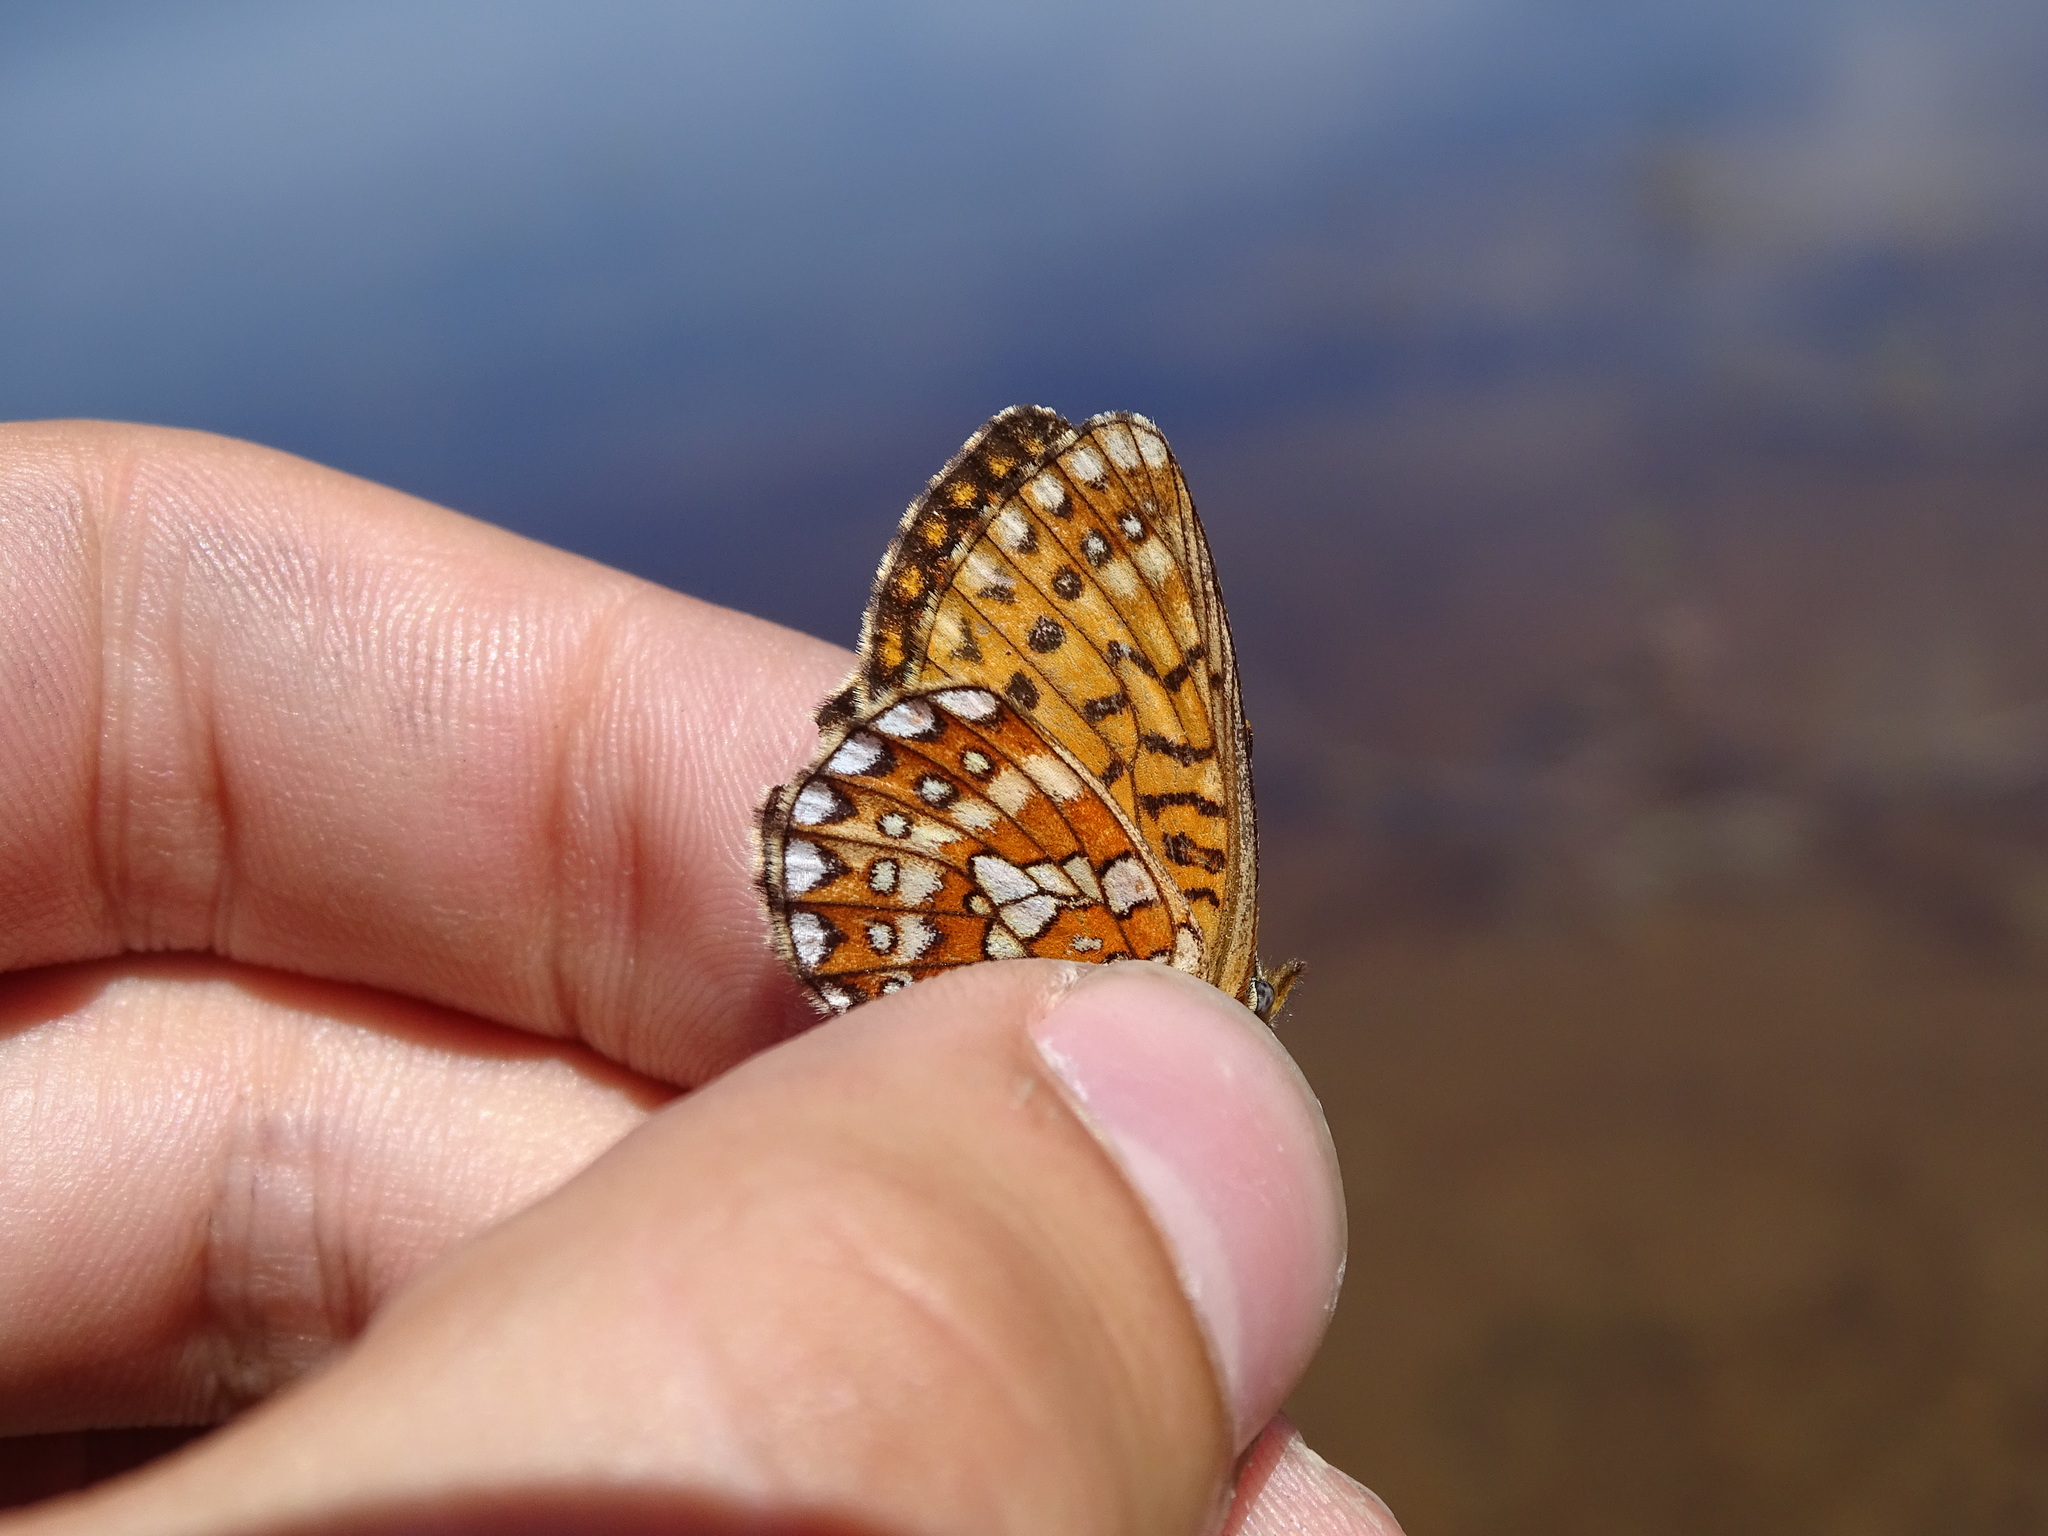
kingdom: Animalia
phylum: Arthropoda
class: Insecta
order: Lepidoptera
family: Nymphalidae
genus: Boloria
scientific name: Boloria eunomia
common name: Bog fritillary
